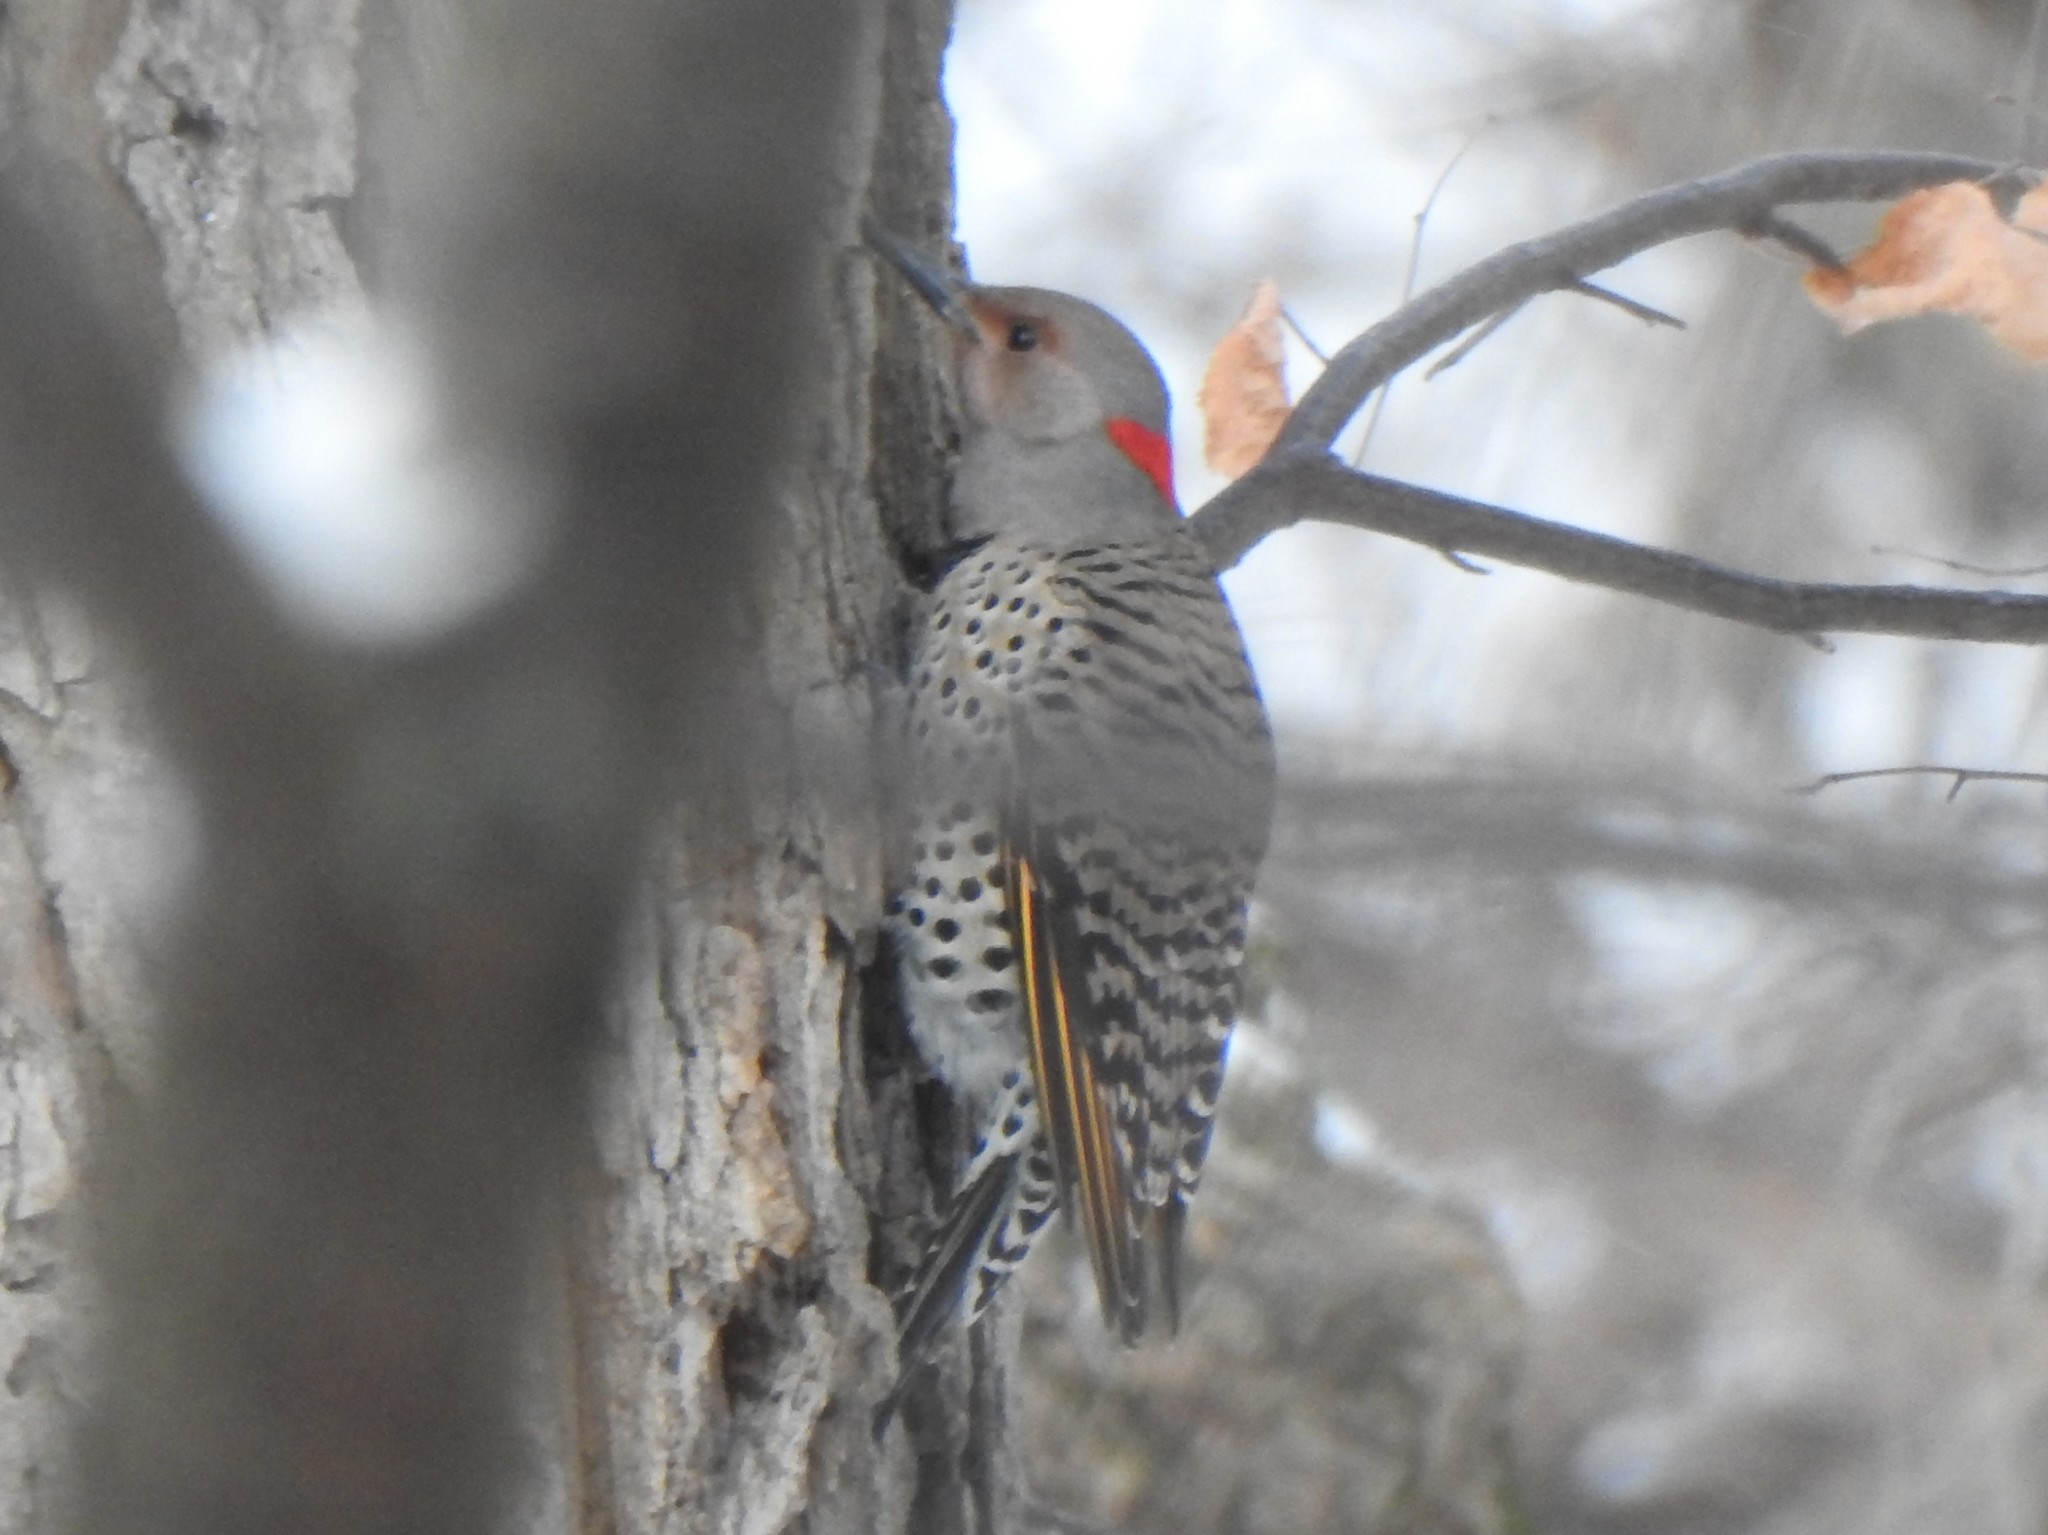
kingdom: Animalia
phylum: Chordata
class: Aves
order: Piciformes
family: Picidae
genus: Colaptes
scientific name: Colaptes auratus
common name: Northern flicker
